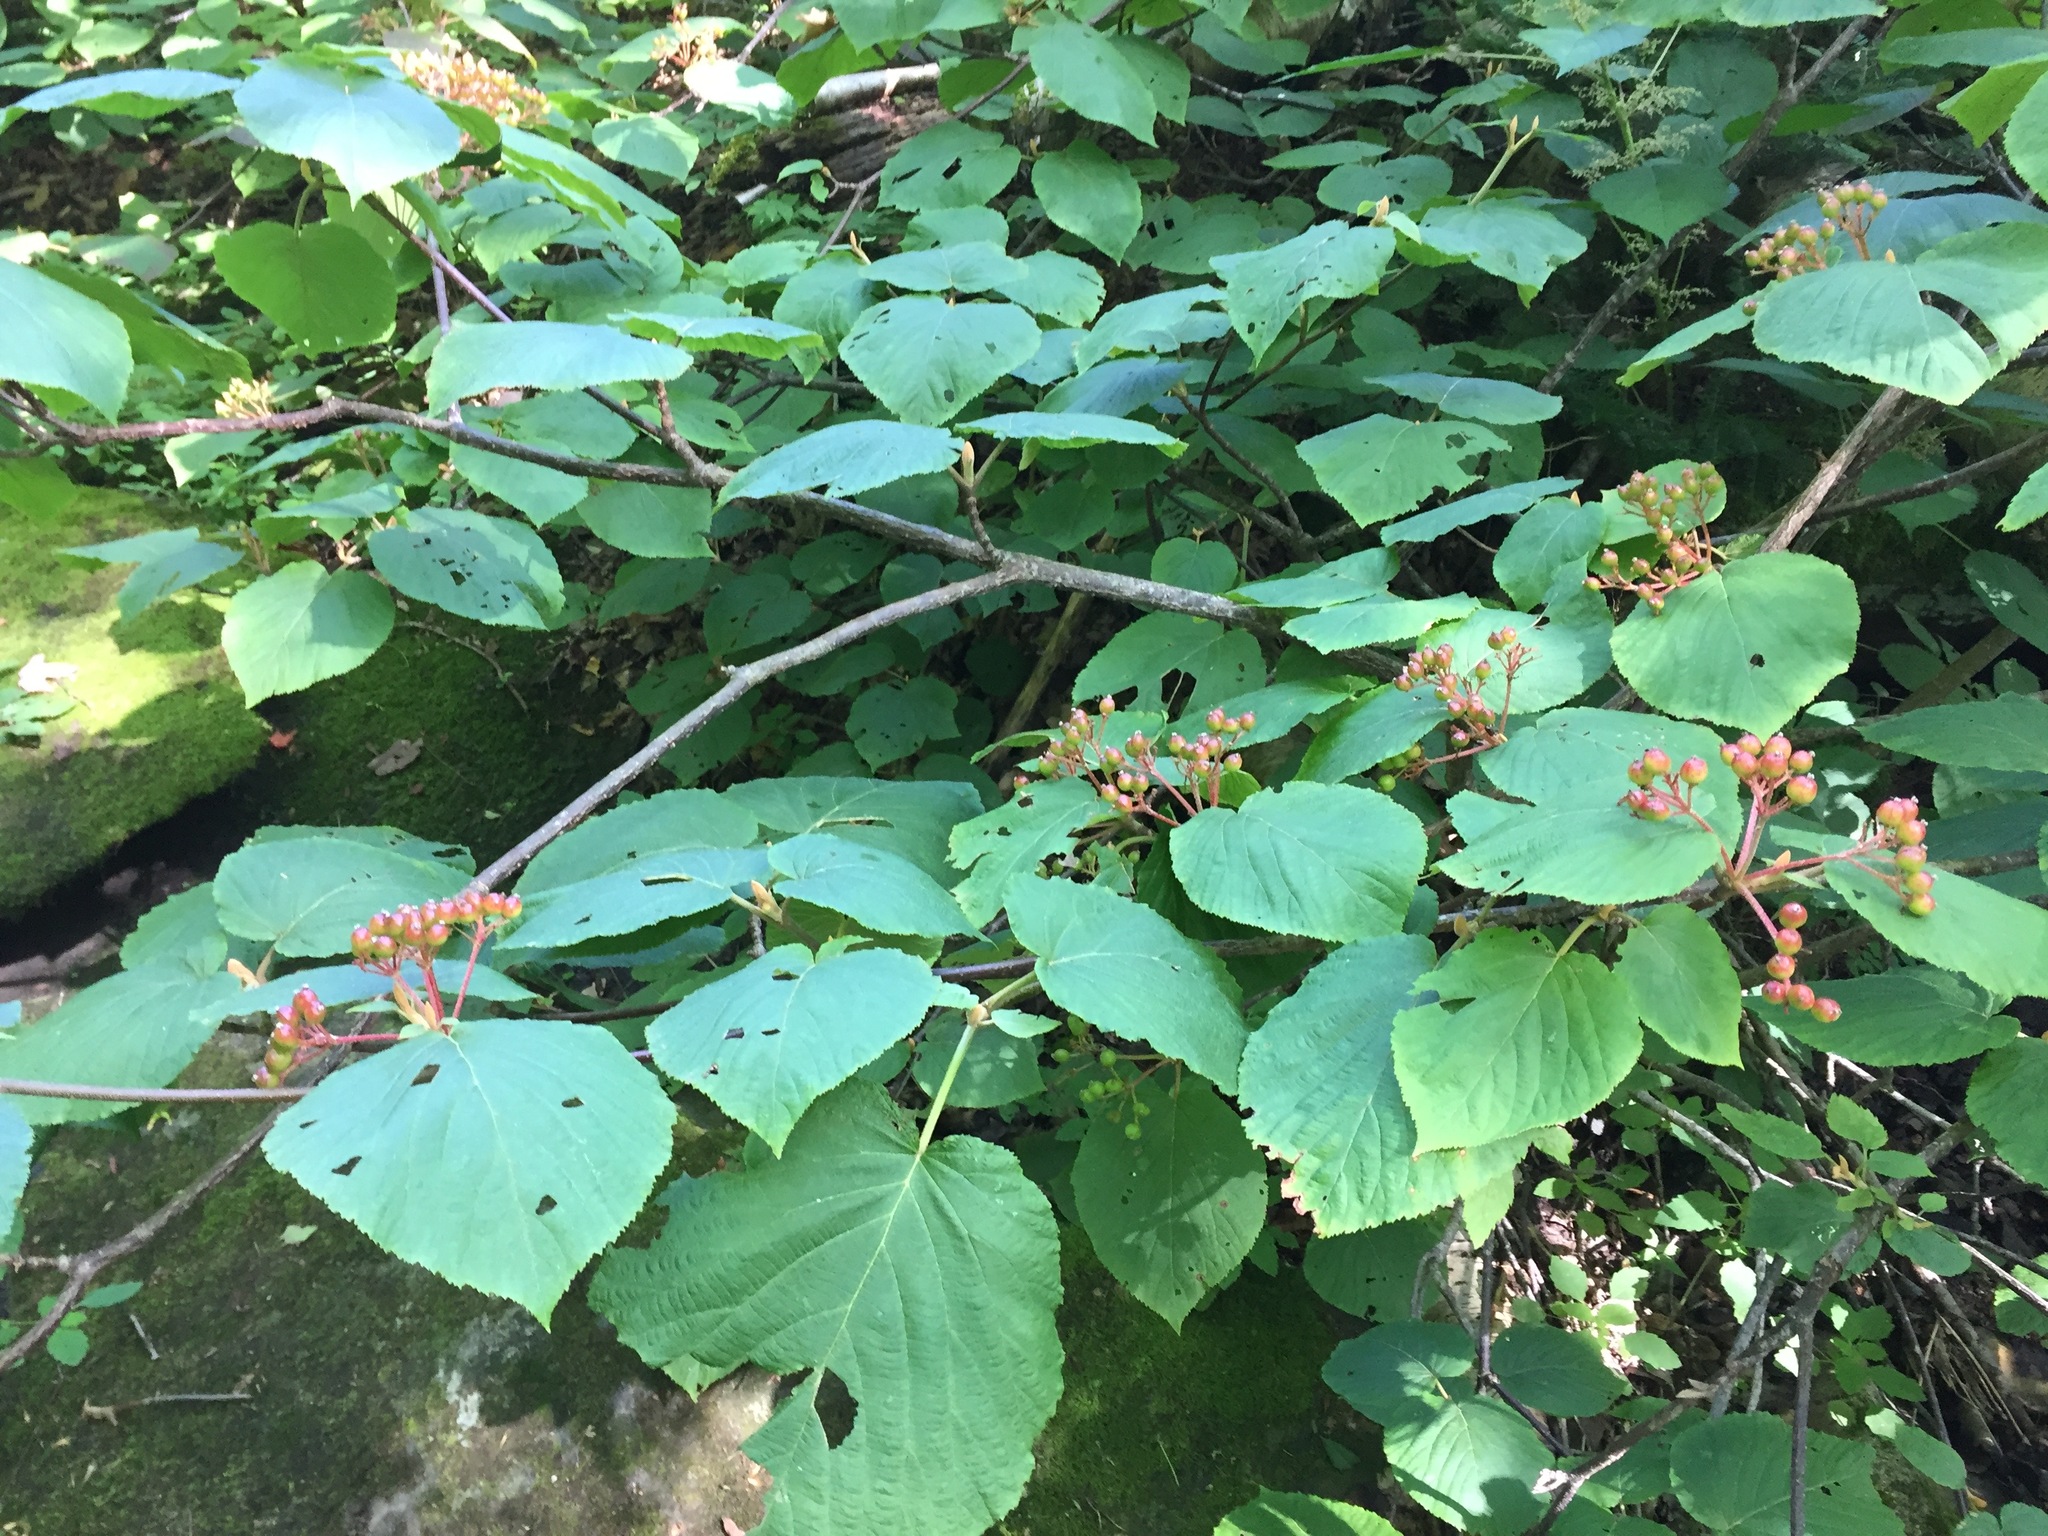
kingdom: Plantae
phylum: Tracheophyta
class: Magnoliopsida
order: Dipsacales
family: Viburnaceae
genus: Viburnum
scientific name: Viburnum lantanoides
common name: Hobblebush
